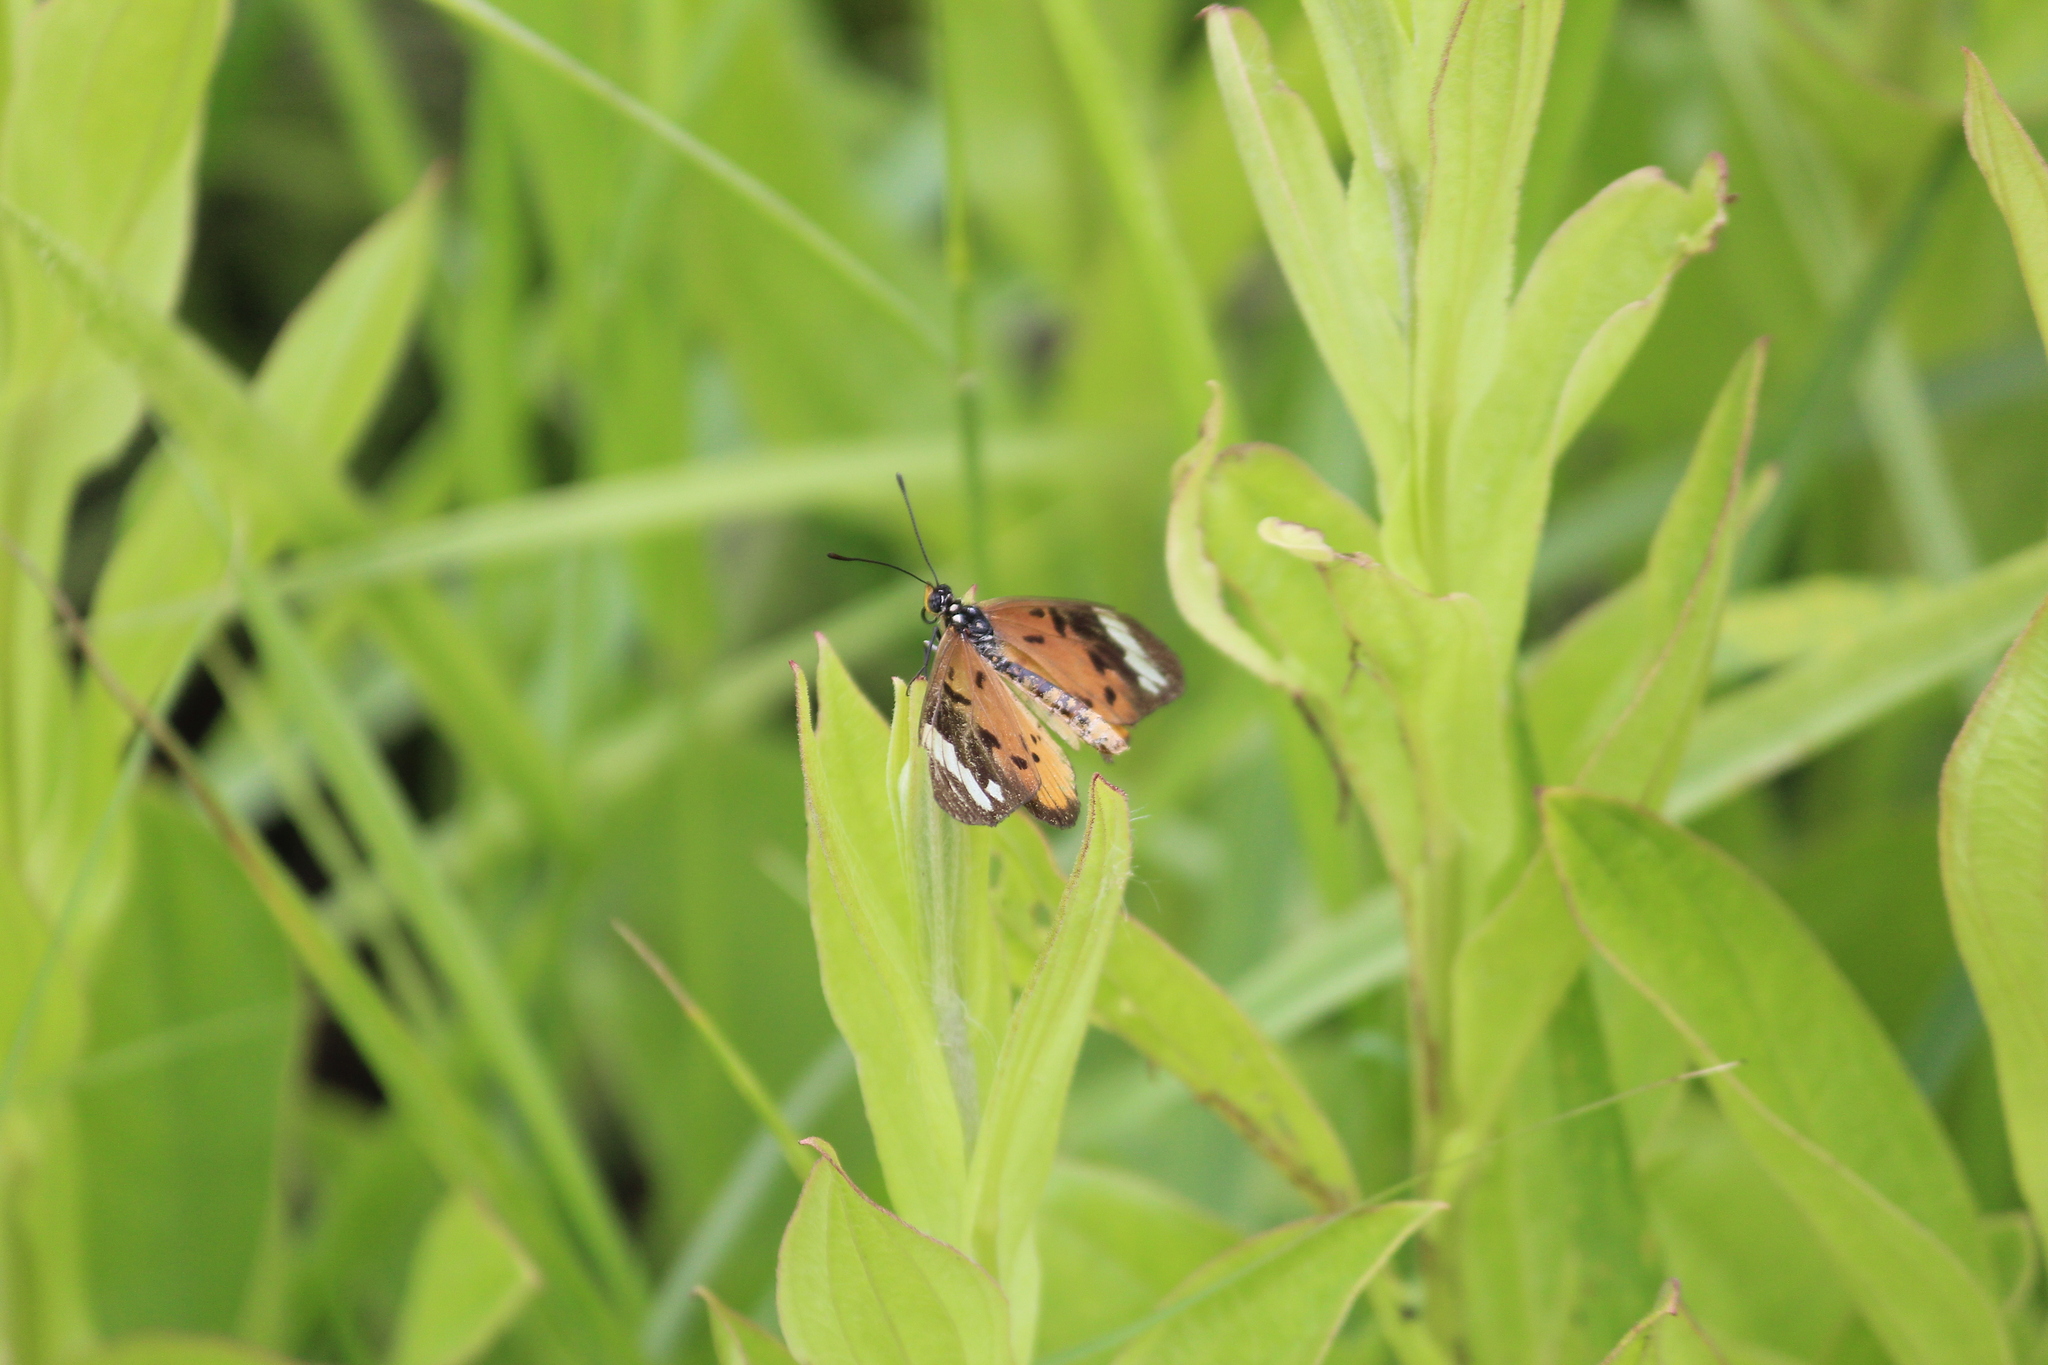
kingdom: Animalia
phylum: Arthropoda
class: Insecta
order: Lepidoptera
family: Nymphalidae
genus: Acraea
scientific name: Acraea Telchinia encedon
